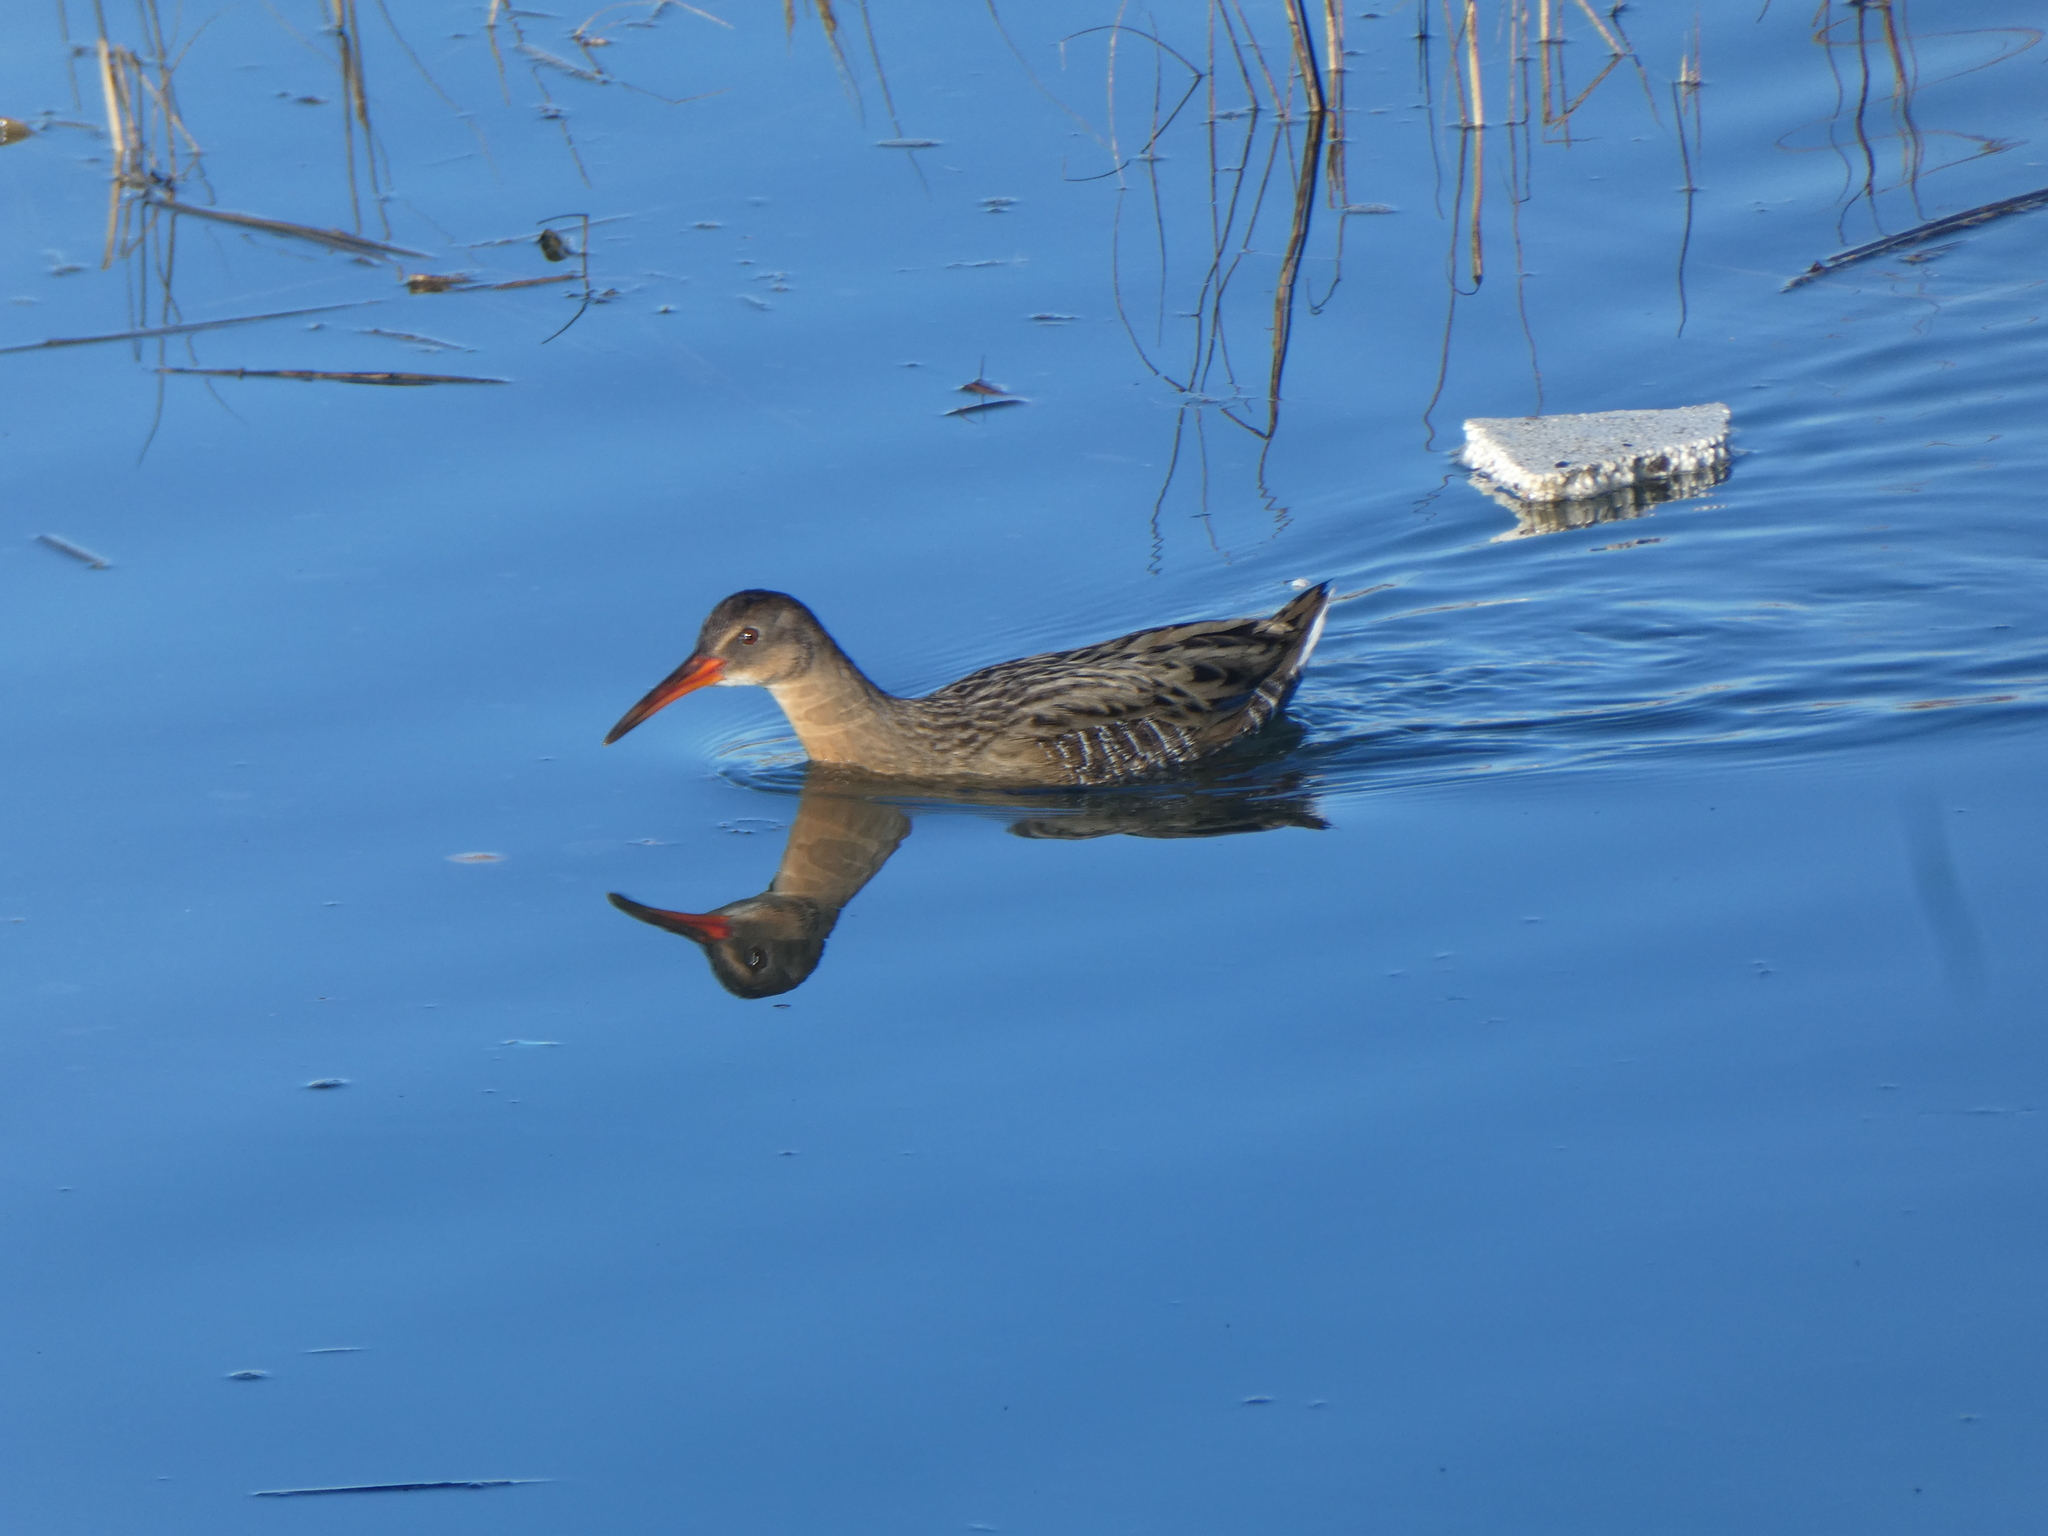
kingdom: Animalia
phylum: Chordata
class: Aves
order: Gruiformes
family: Rallidae
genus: Rallus
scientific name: Rallus limicola
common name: Virginia rail
